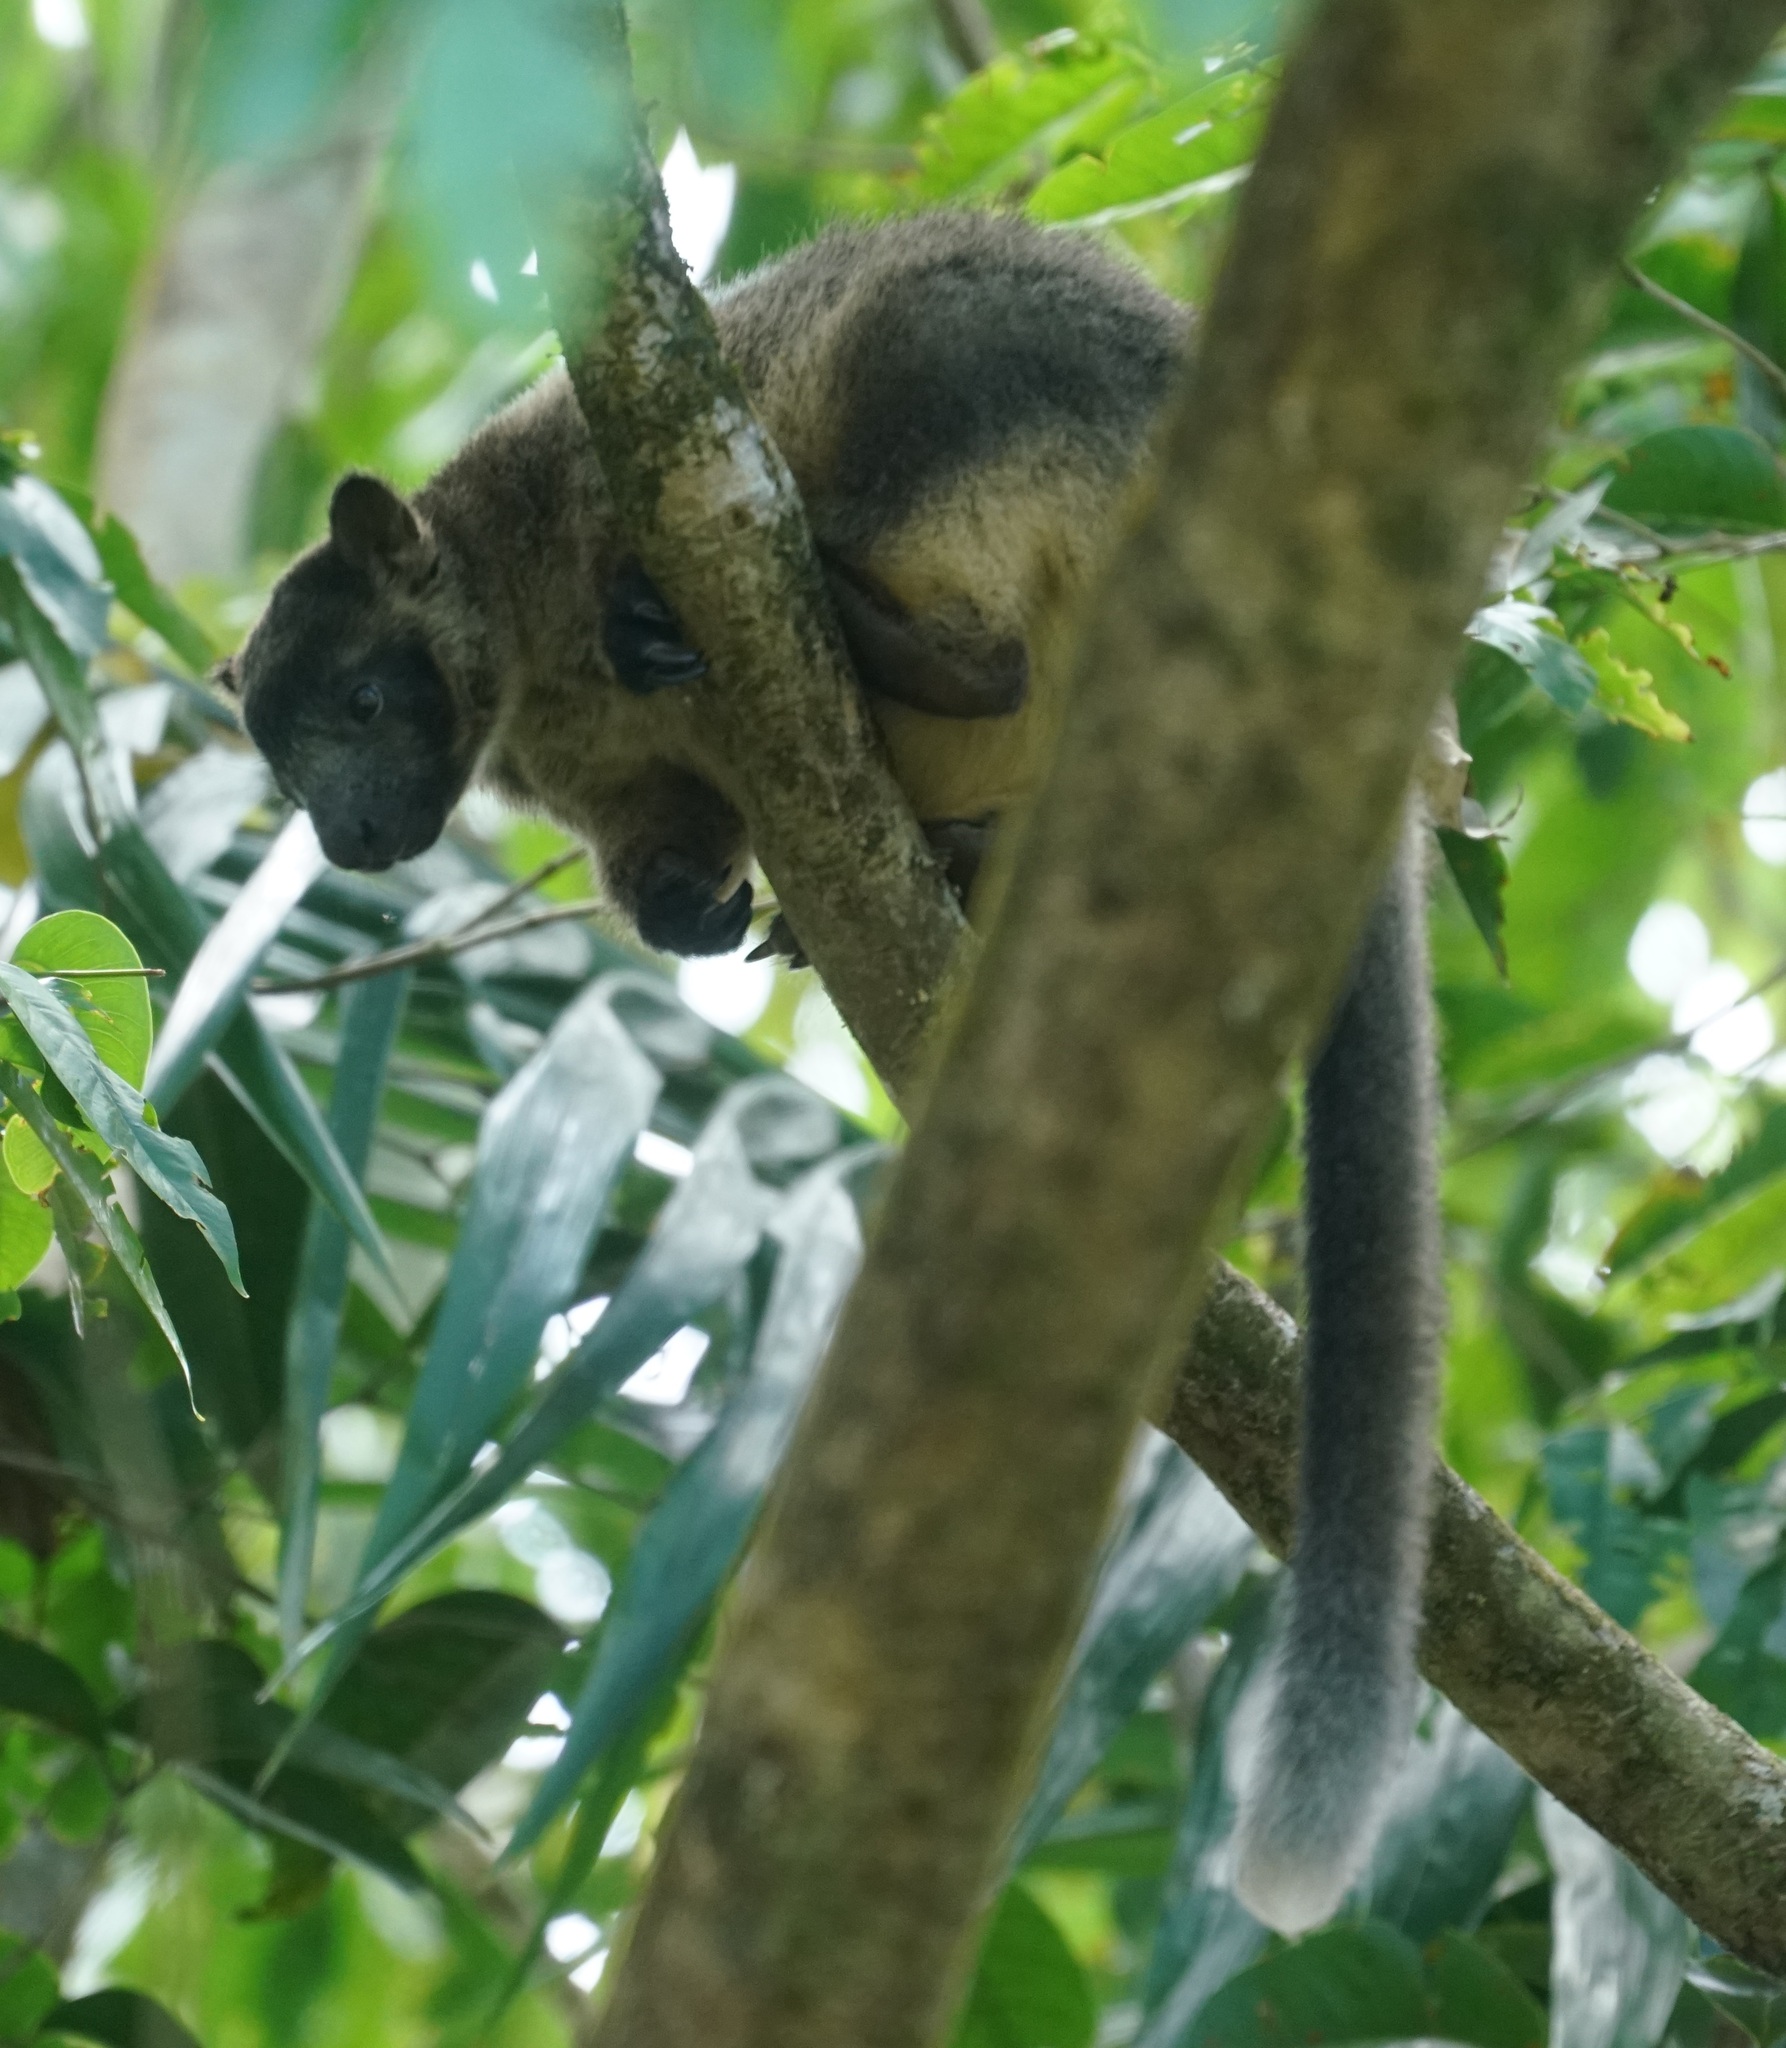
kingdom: Animalia
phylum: Chordata
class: Mammalia
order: Diprotodontia
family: Macropodidae
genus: Dendrolagus
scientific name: Dendrolagus lumholtzi
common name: Lumholtz's tree kangaroo
